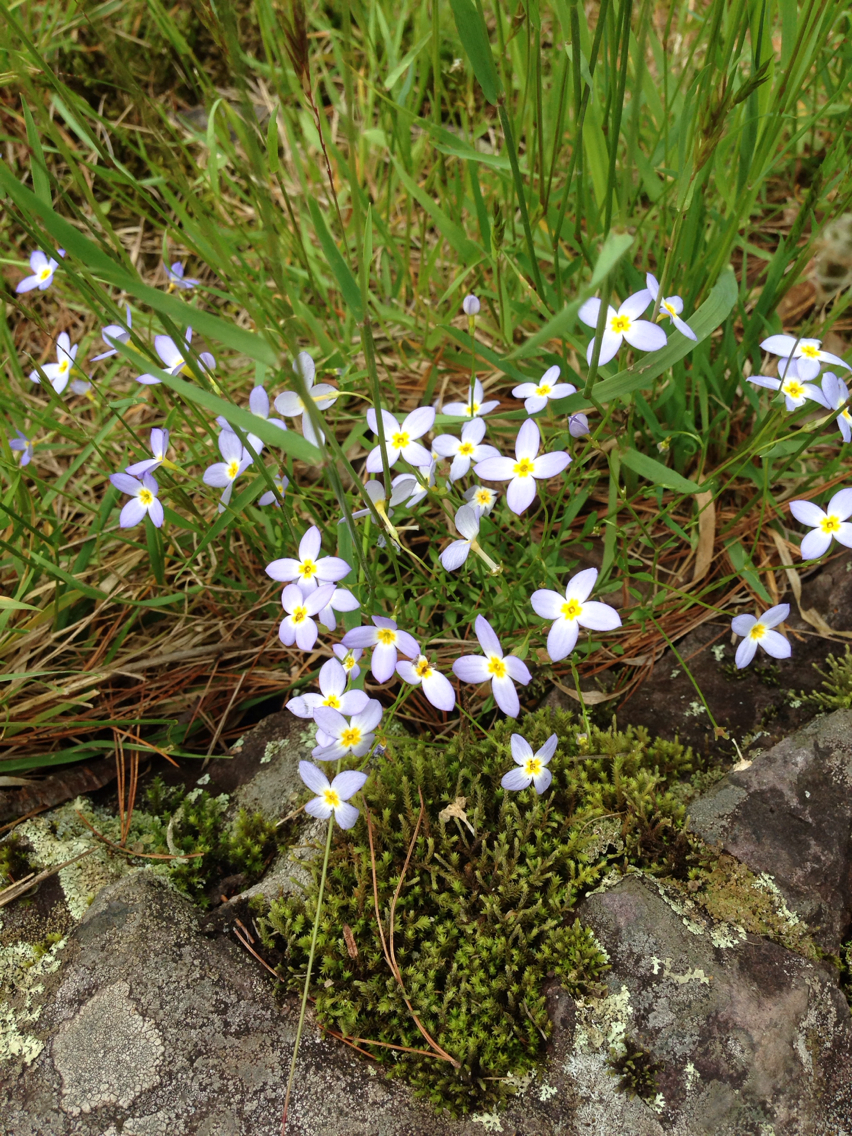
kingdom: Plantae
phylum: Tracheophyta
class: Magnoliopsida
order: Gentianales
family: Rubiaceae
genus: Houstonia
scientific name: Houstonia caerulea
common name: Bluets
